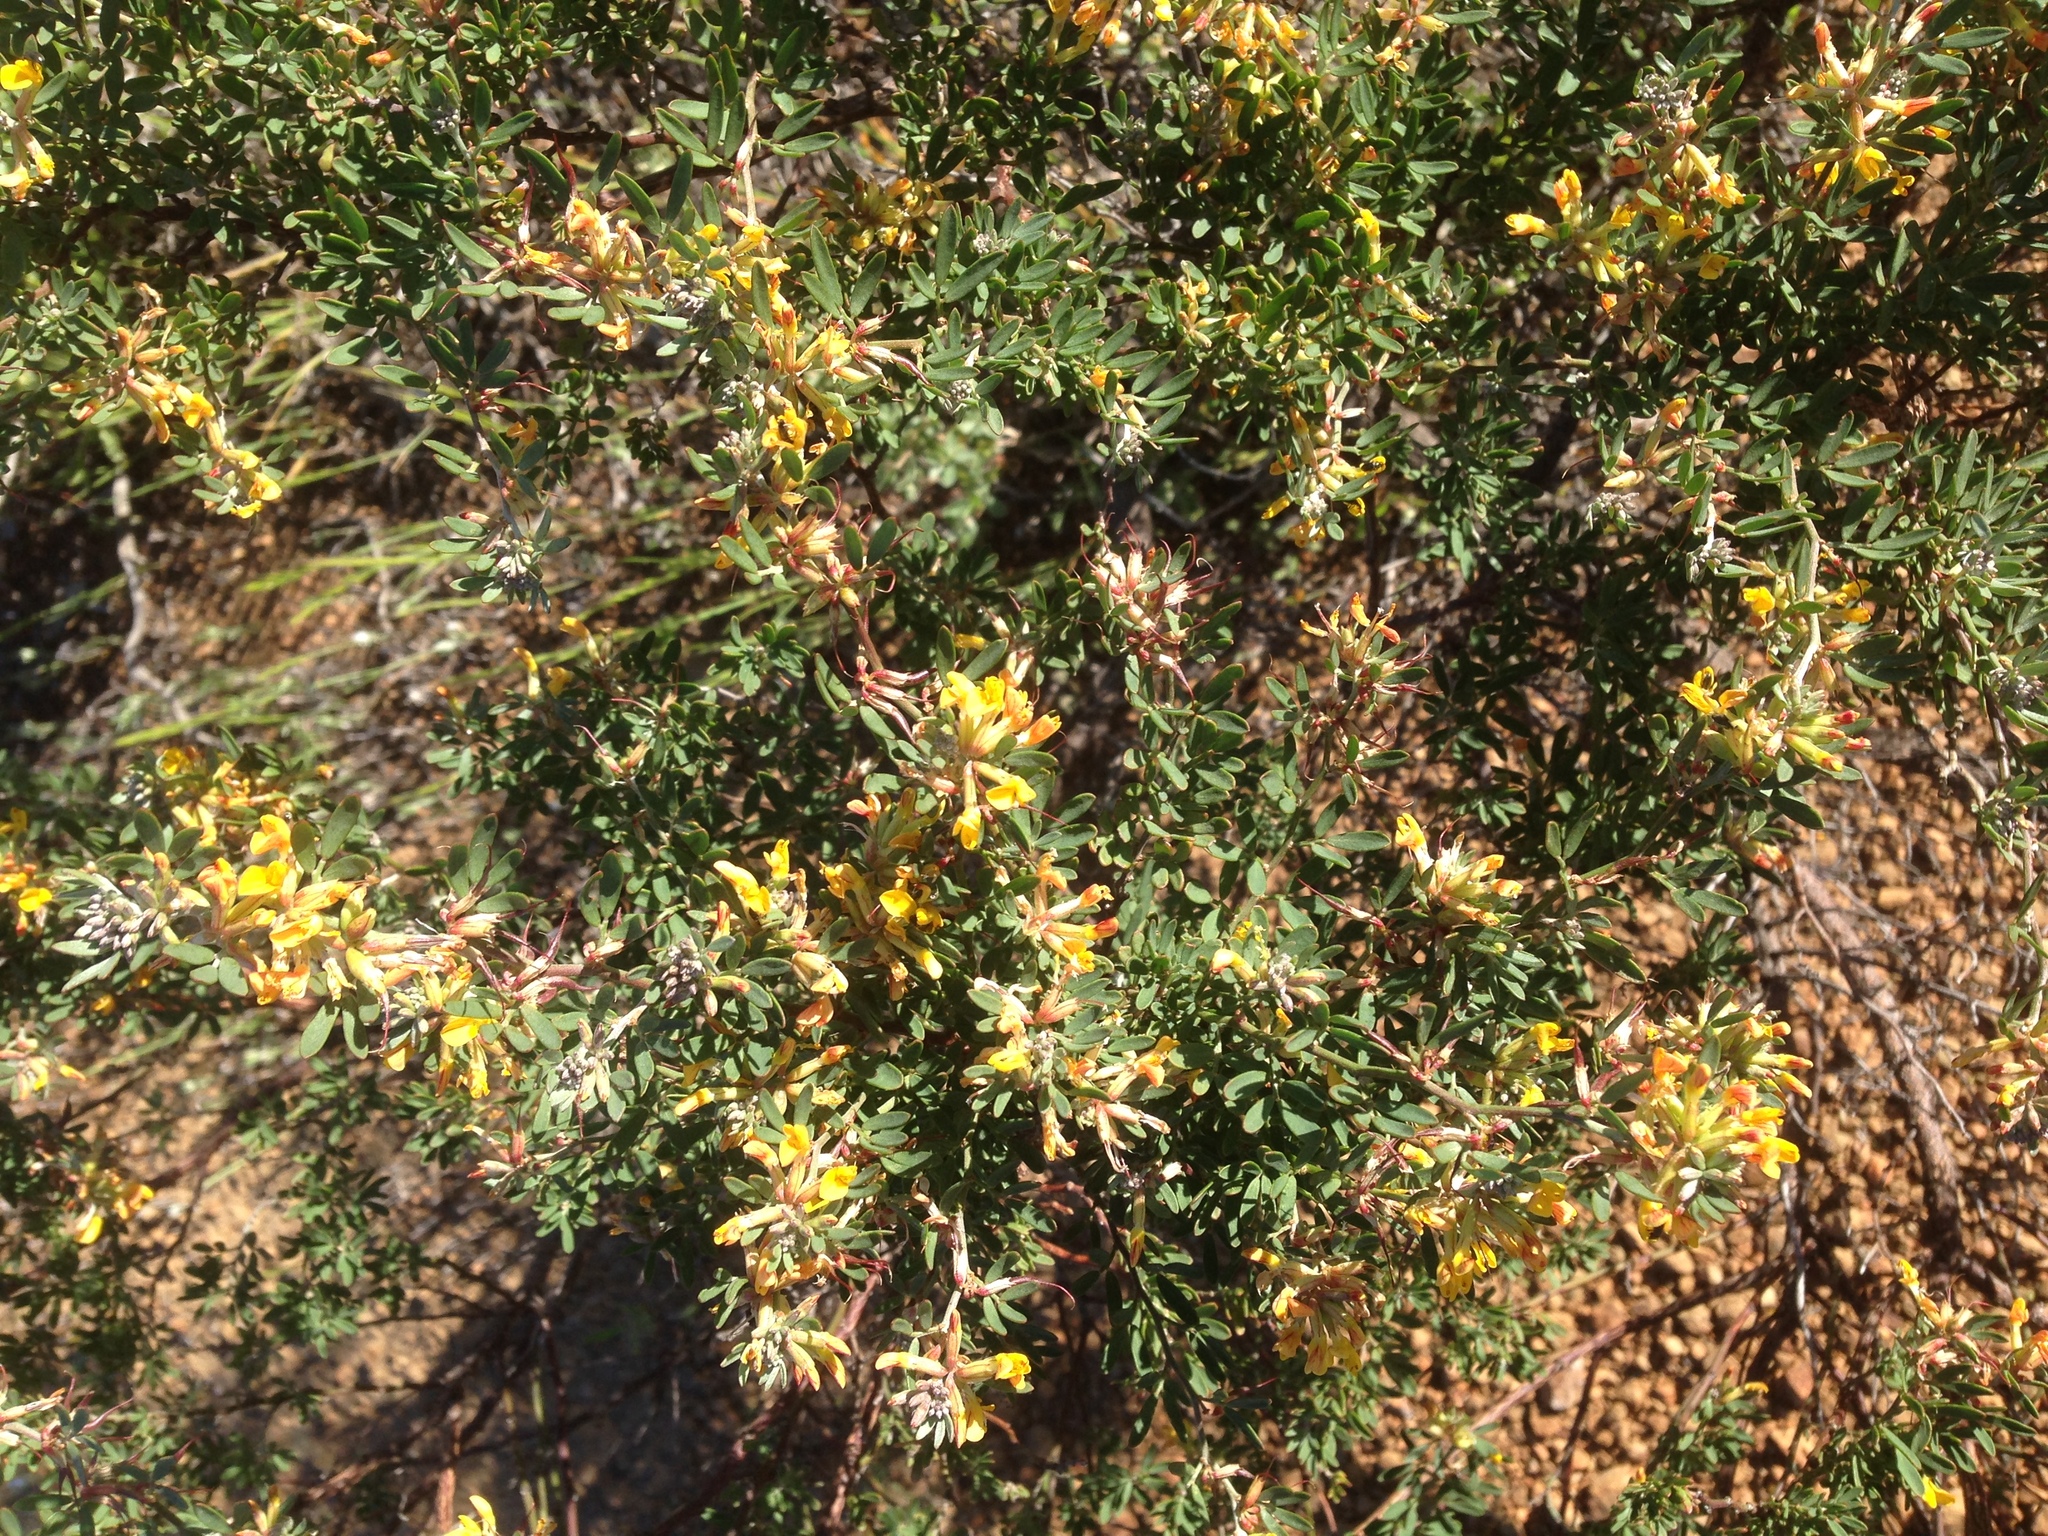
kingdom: Plantae
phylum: Tracheophyta
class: Magnoliopsida
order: Fabales
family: Fabaceae
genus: Acmispon
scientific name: Acmispon dendroideus
